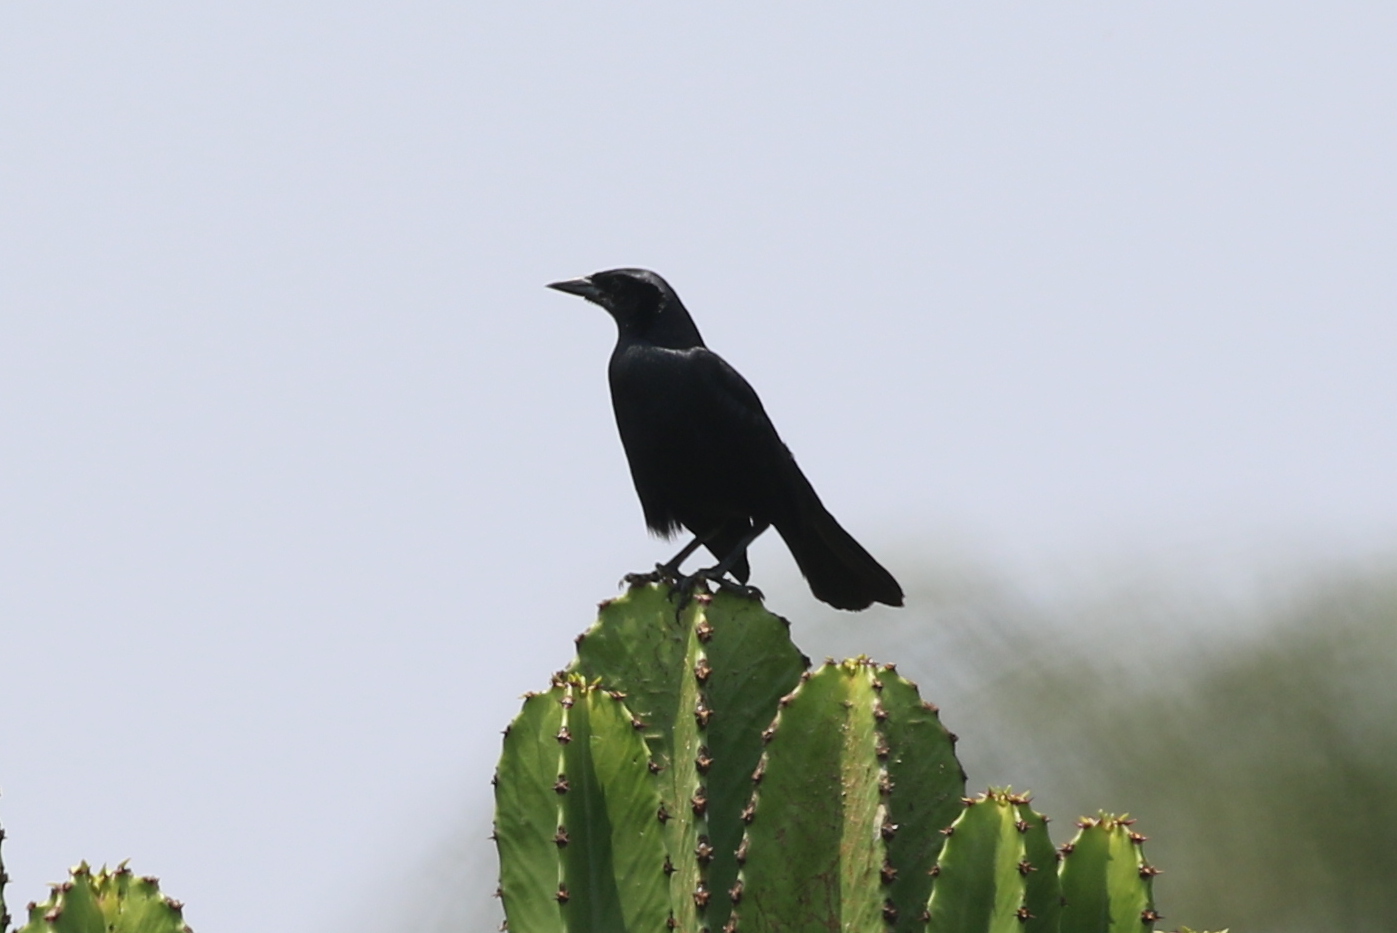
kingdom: Animalia
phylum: Chordata
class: Aves
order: Passeriformes
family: Icteridae
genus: Dives
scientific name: Dives warczewiczi
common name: Scrub blackbird
